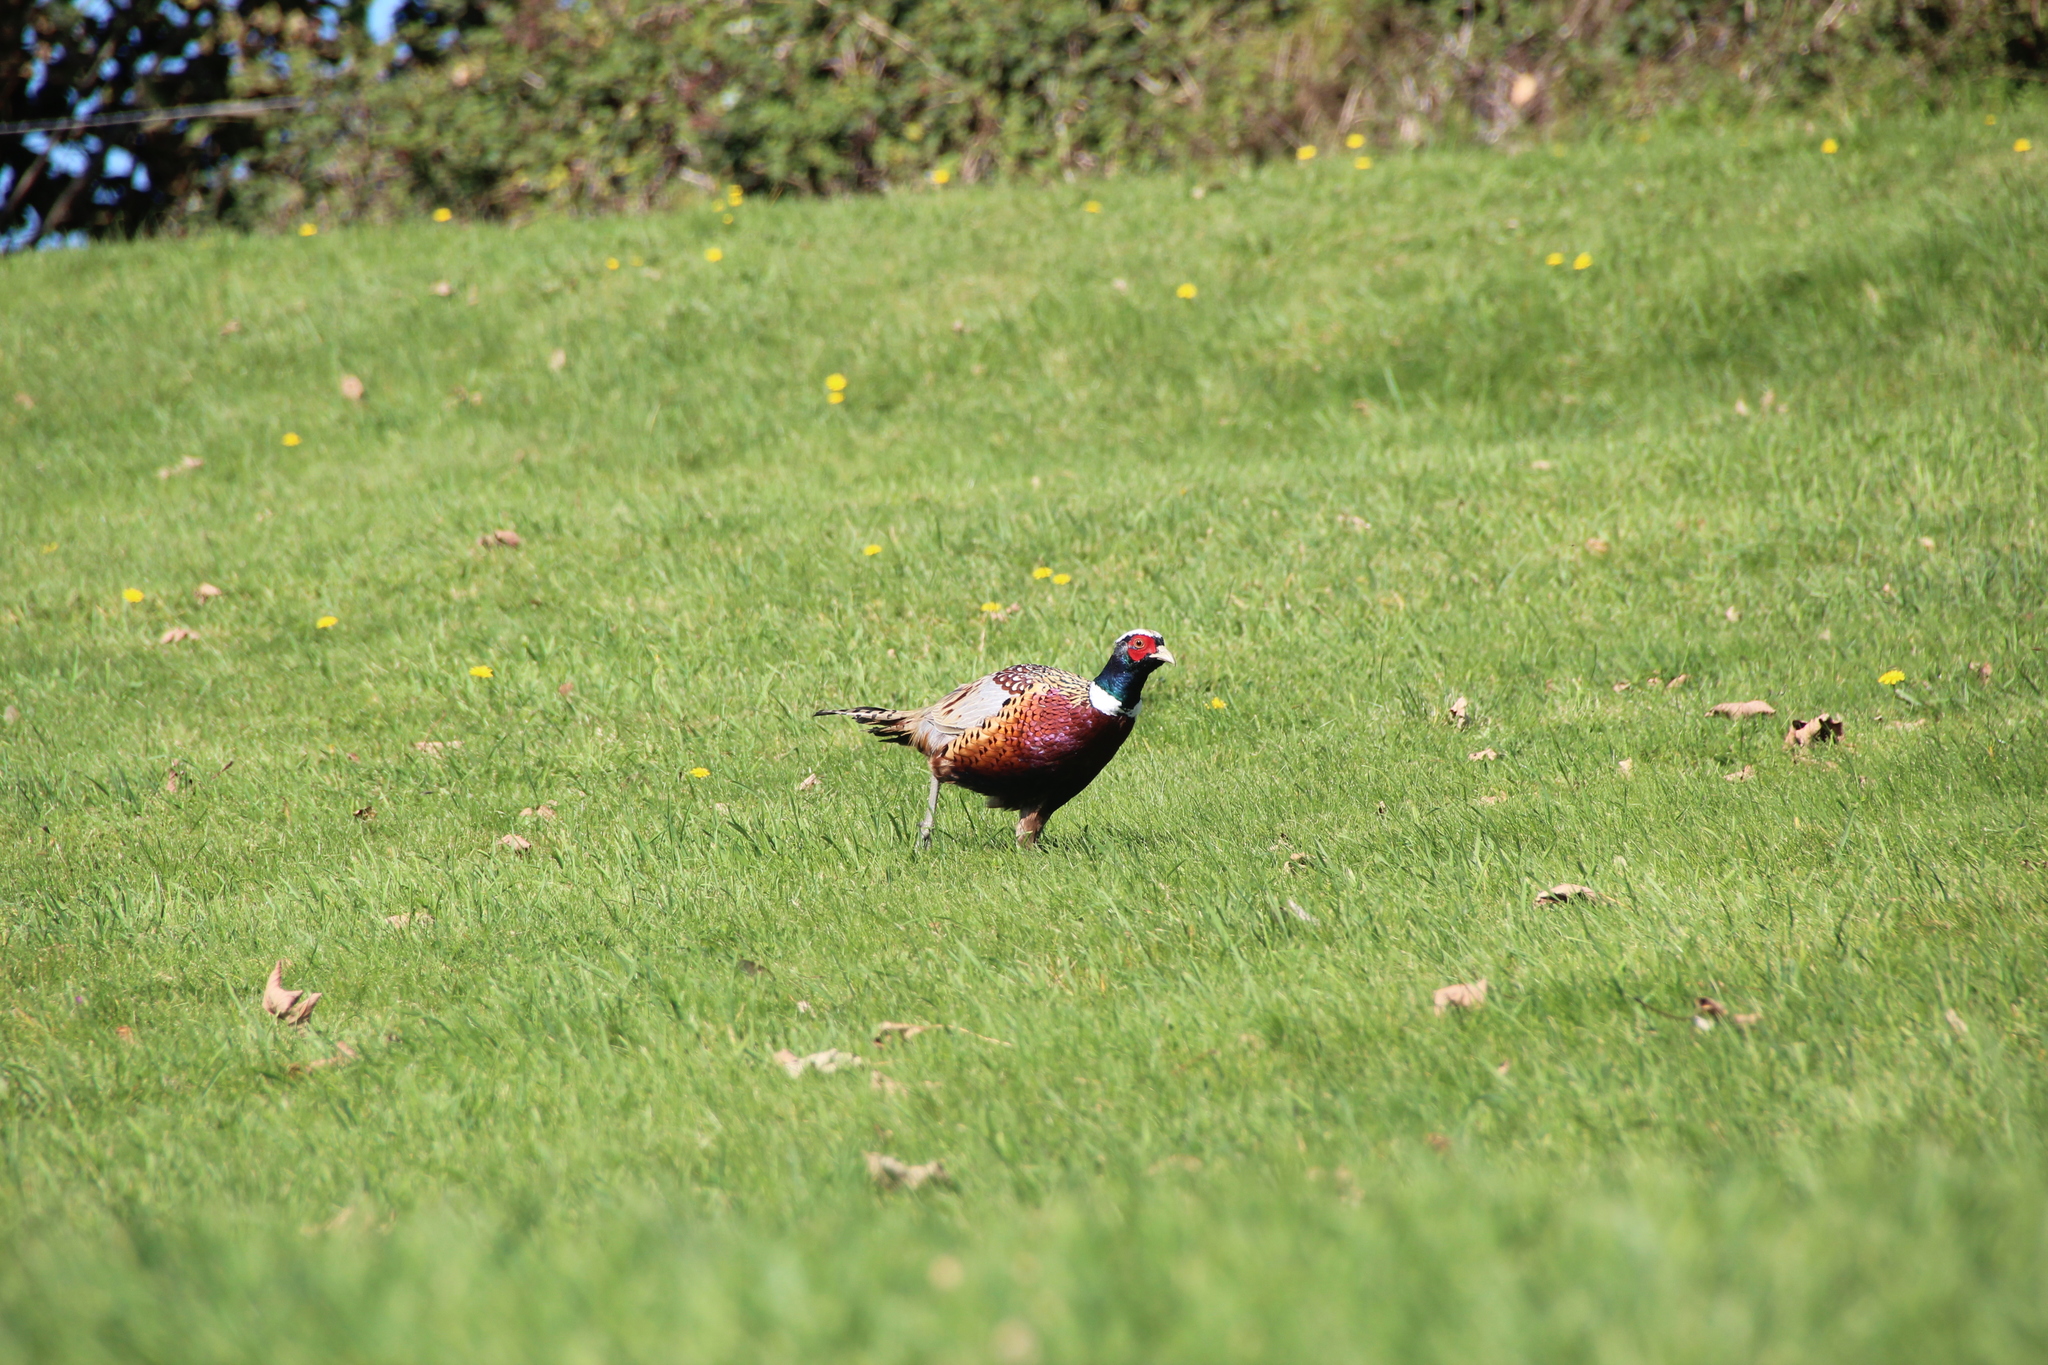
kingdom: Animalia
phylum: Chordata
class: Aves
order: Galliformes
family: Phasianidae
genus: Phasianus
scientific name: Phasianus colchicus
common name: Common pheasant
